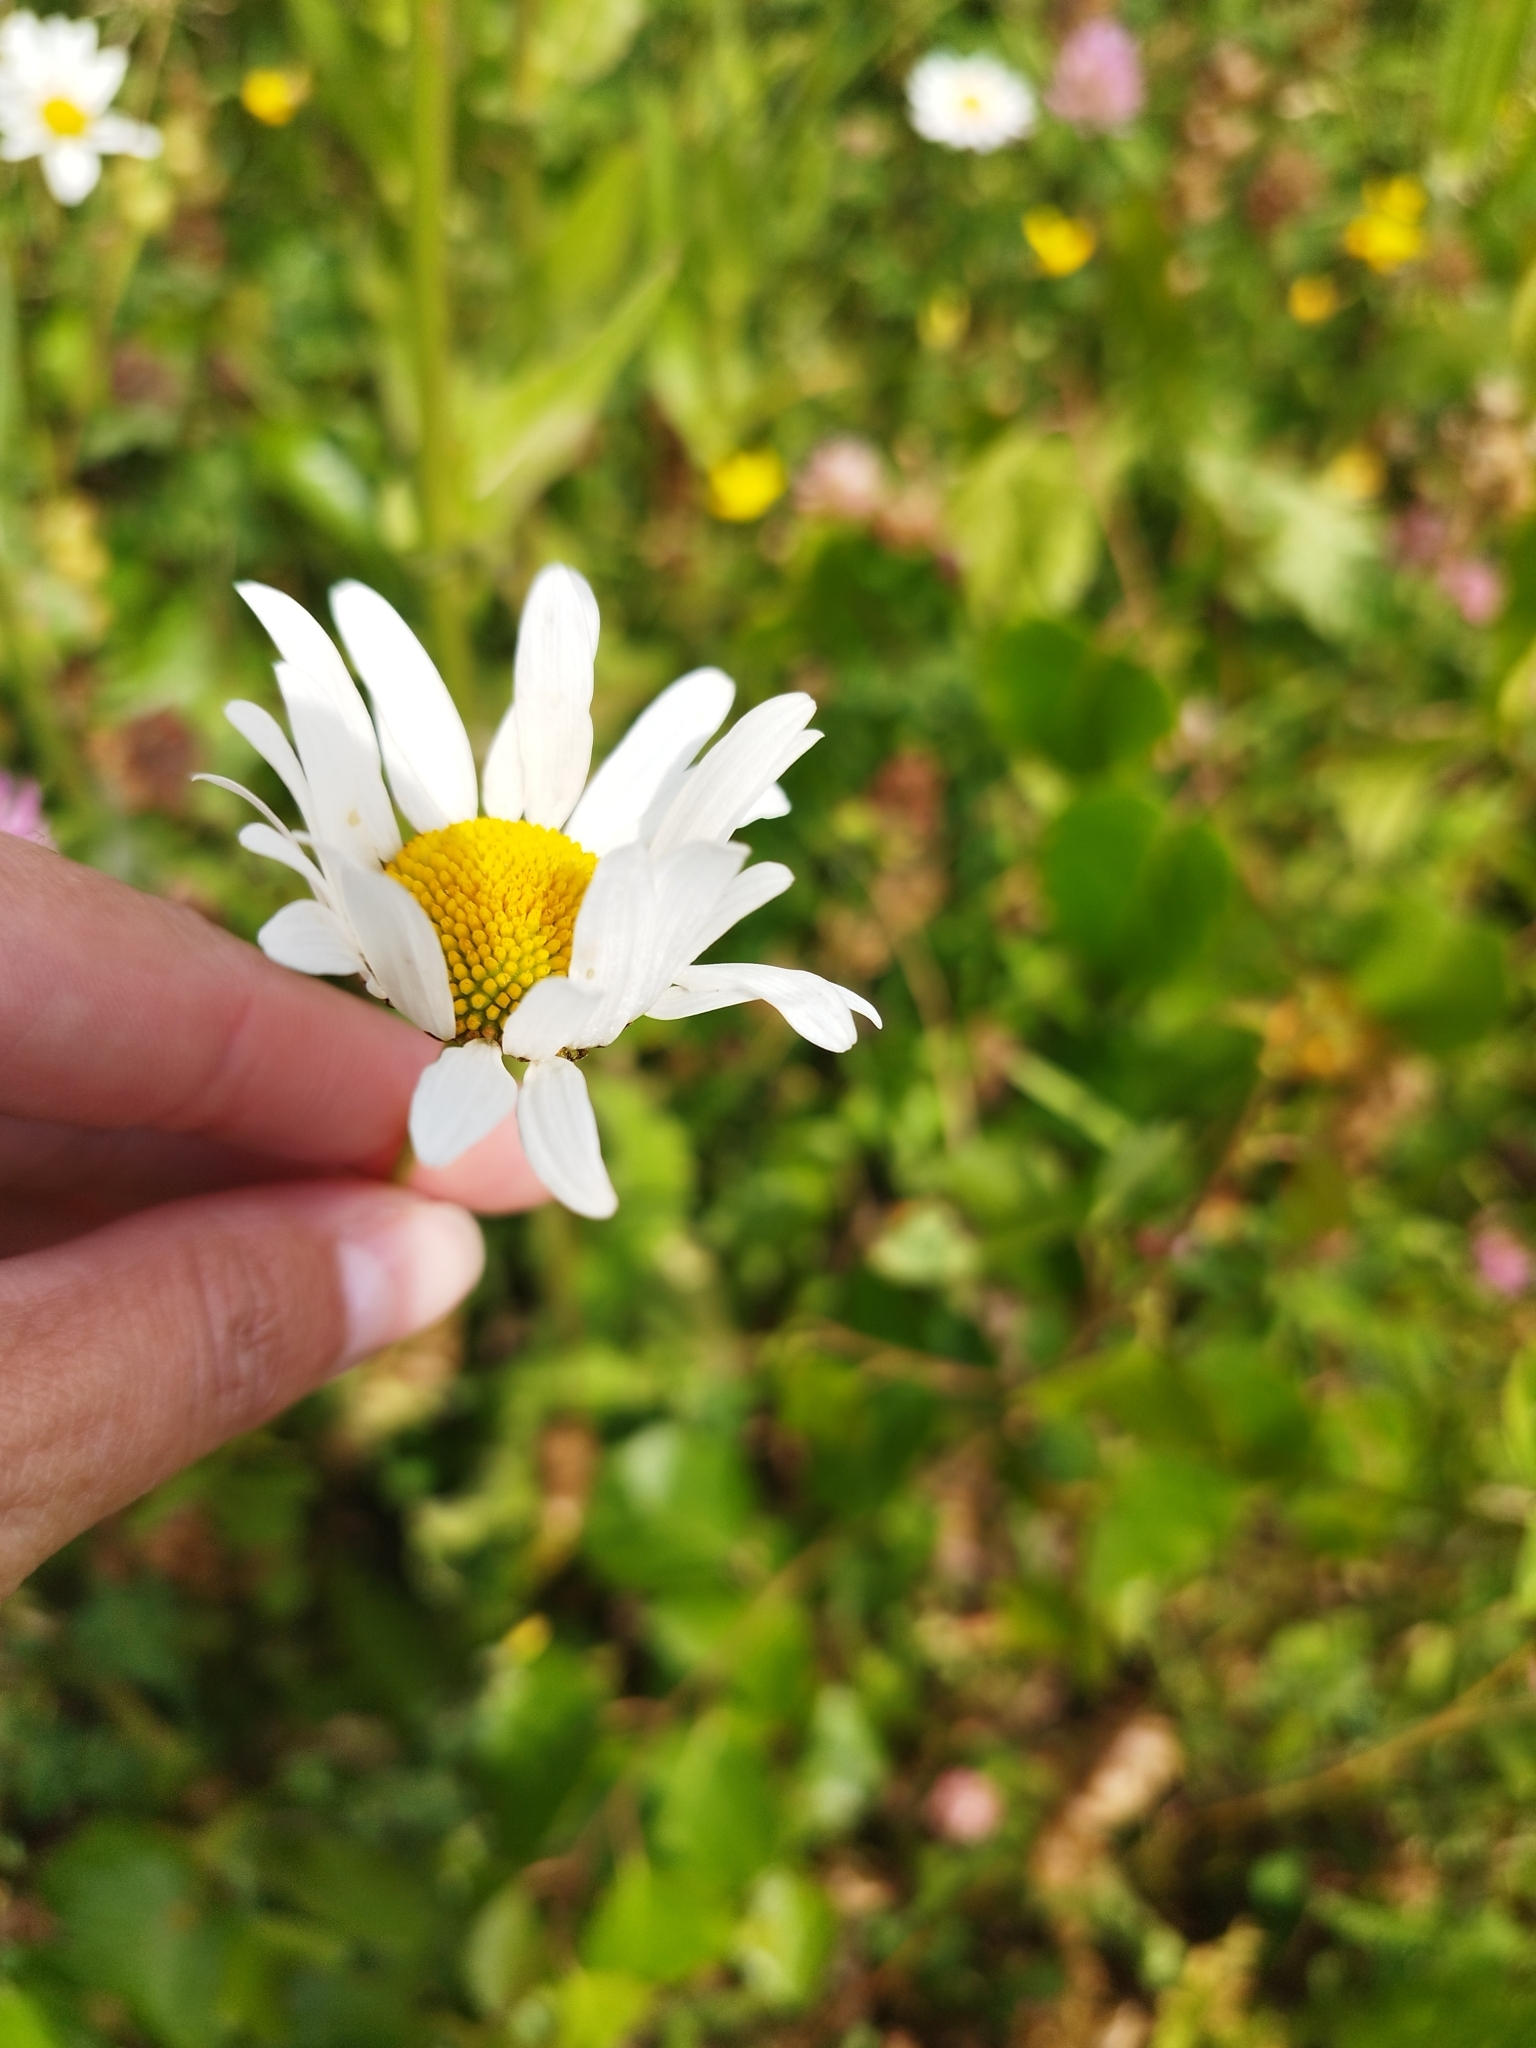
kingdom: Plantae
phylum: Tracheophyta
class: Magnoliopsida
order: Asterales
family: Asteraceae
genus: Leucanthemum
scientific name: Leucanthemum vulgare
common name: Oxeye daisy
